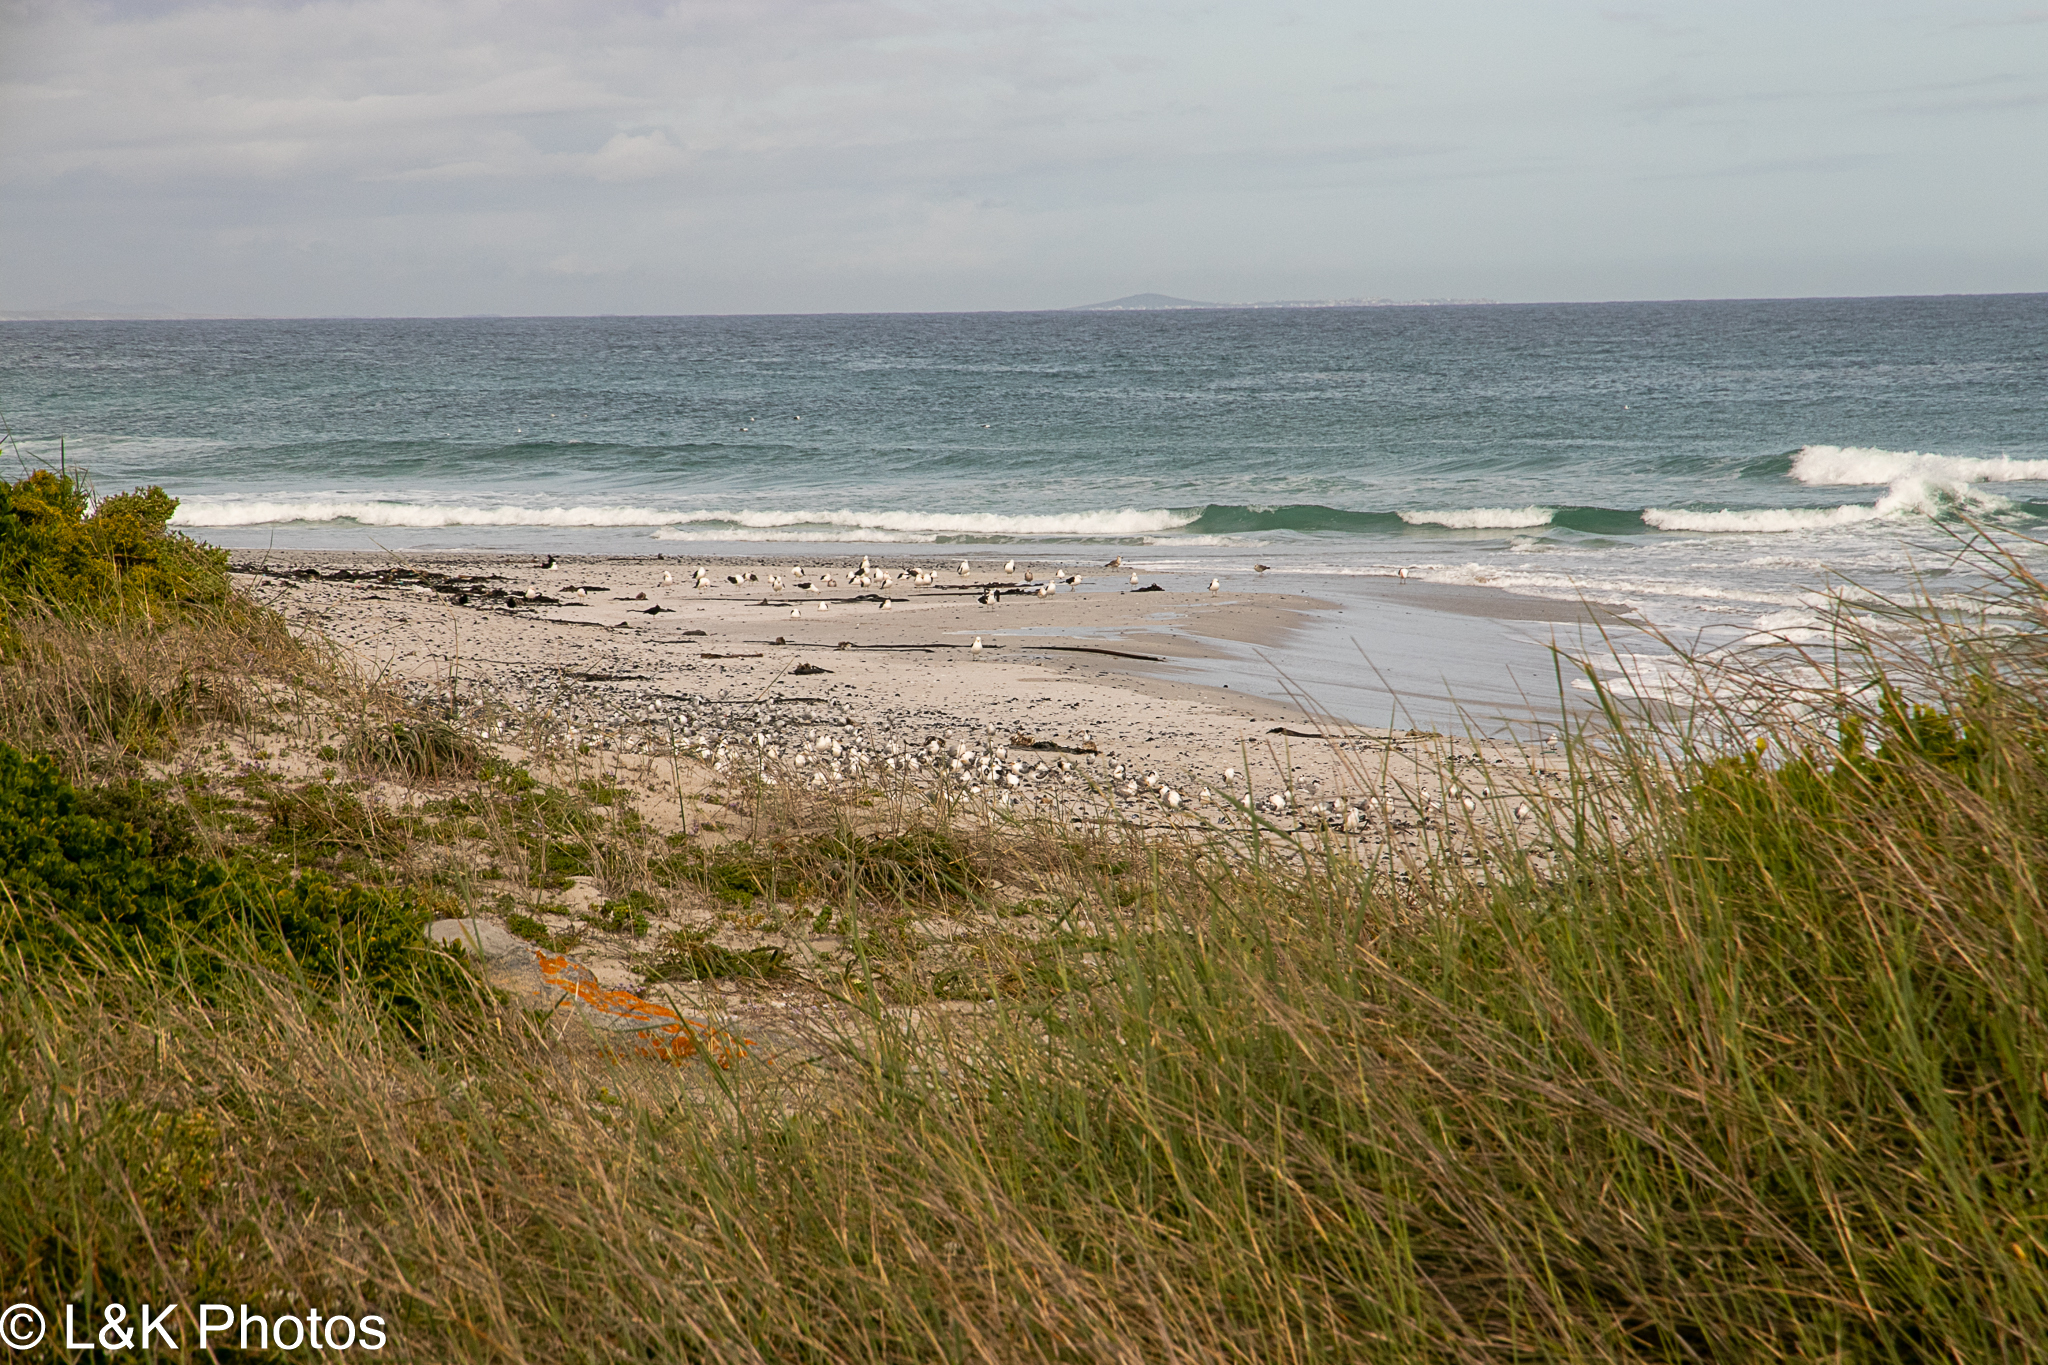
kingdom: Animalia
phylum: Chordata
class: Aves
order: Charadriiformes
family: Laridae
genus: Chroicocephalus
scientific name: Chroicocephalus hartlaubii
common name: Hartlaub's gull
